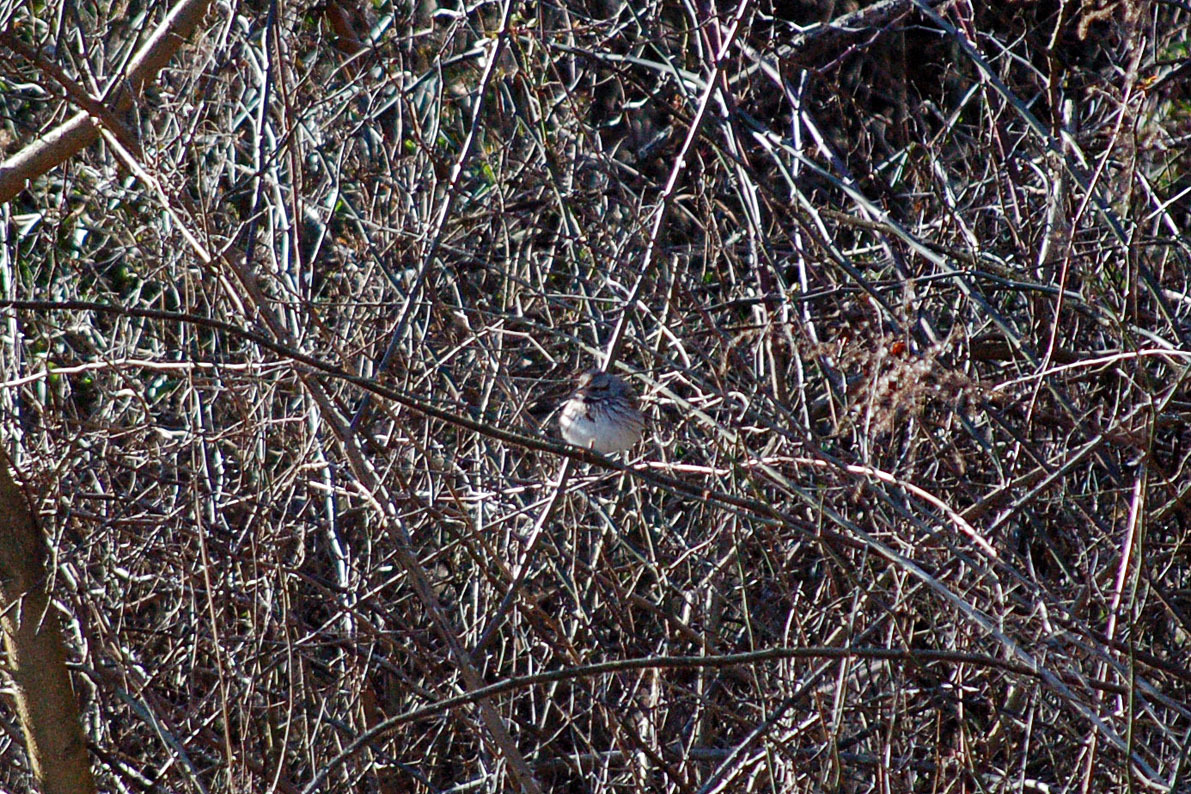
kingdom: Animalia
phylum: Chordata
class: Aves
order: Passeriformes
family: Passerellidae
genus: Melospiza
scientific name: Melospiza melodia
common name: Song sparrow
